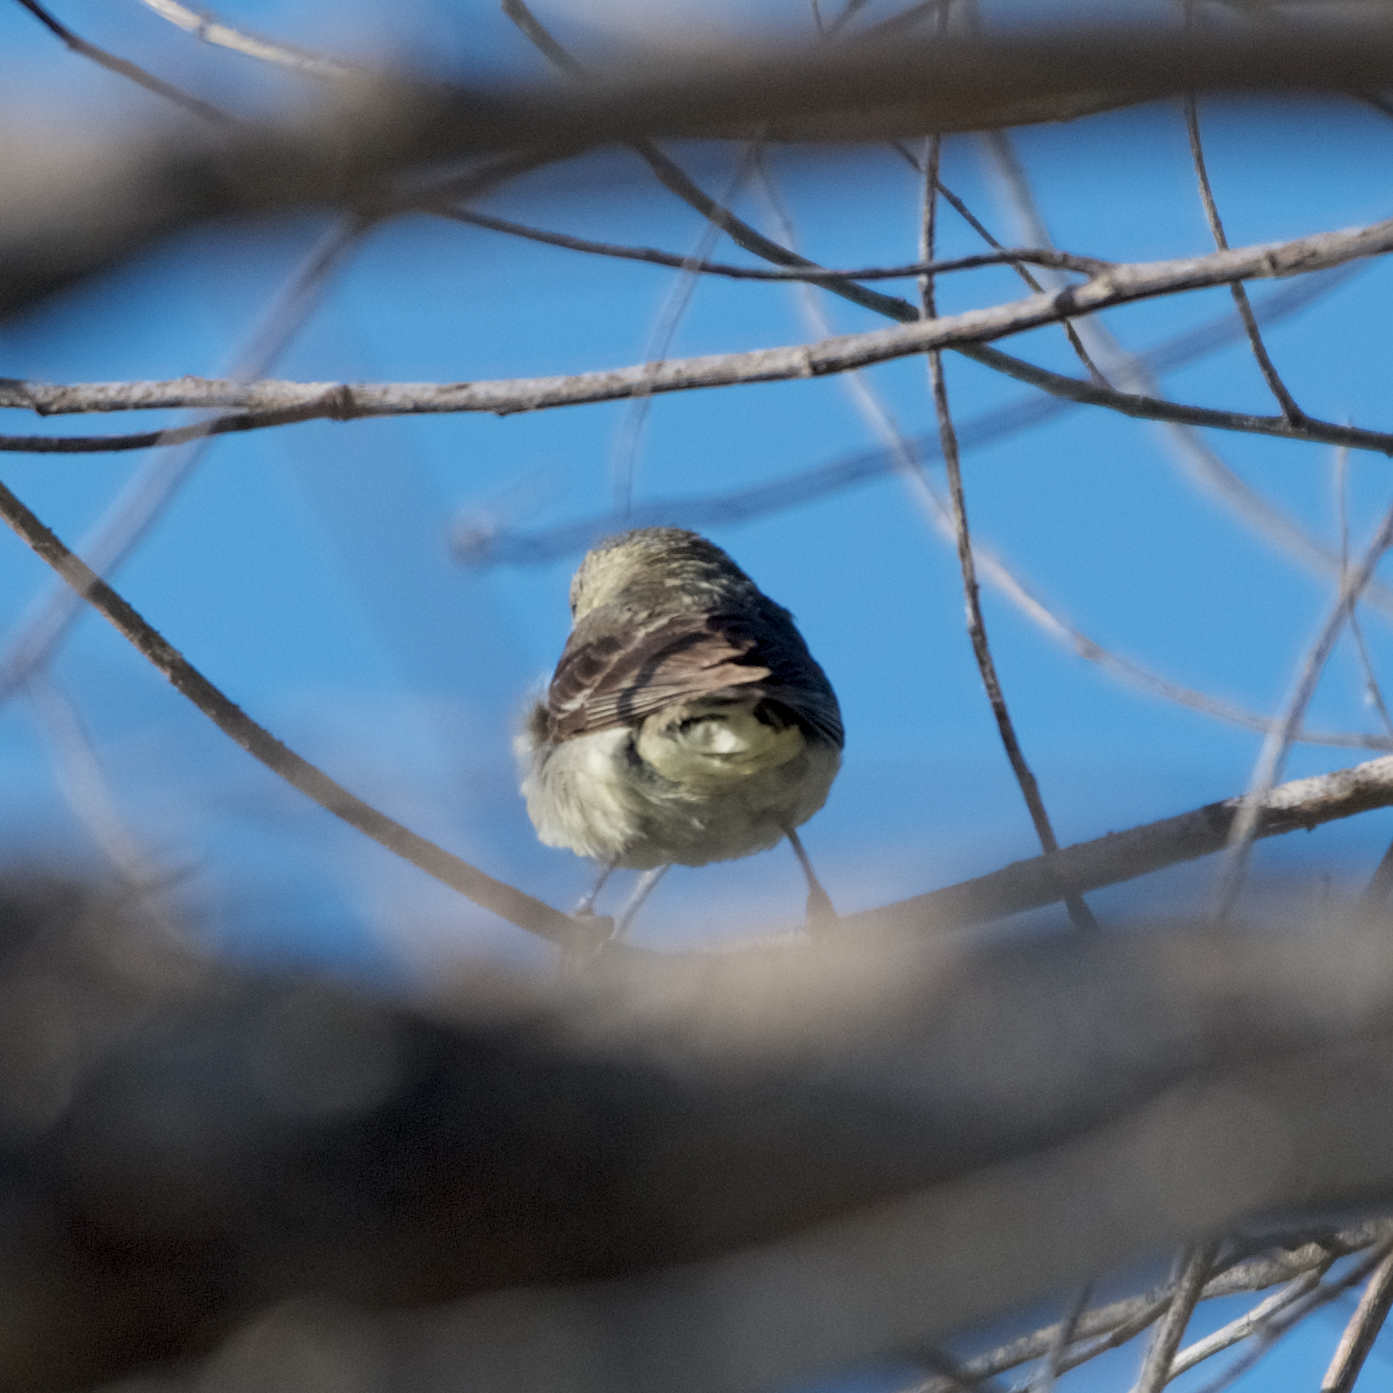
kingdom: Animalia
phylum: Chordata
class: Aves
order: Passeriformes
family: Fringillidae
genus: Spinus
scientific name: Spinus psaltria
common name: Lesser goldfinch
